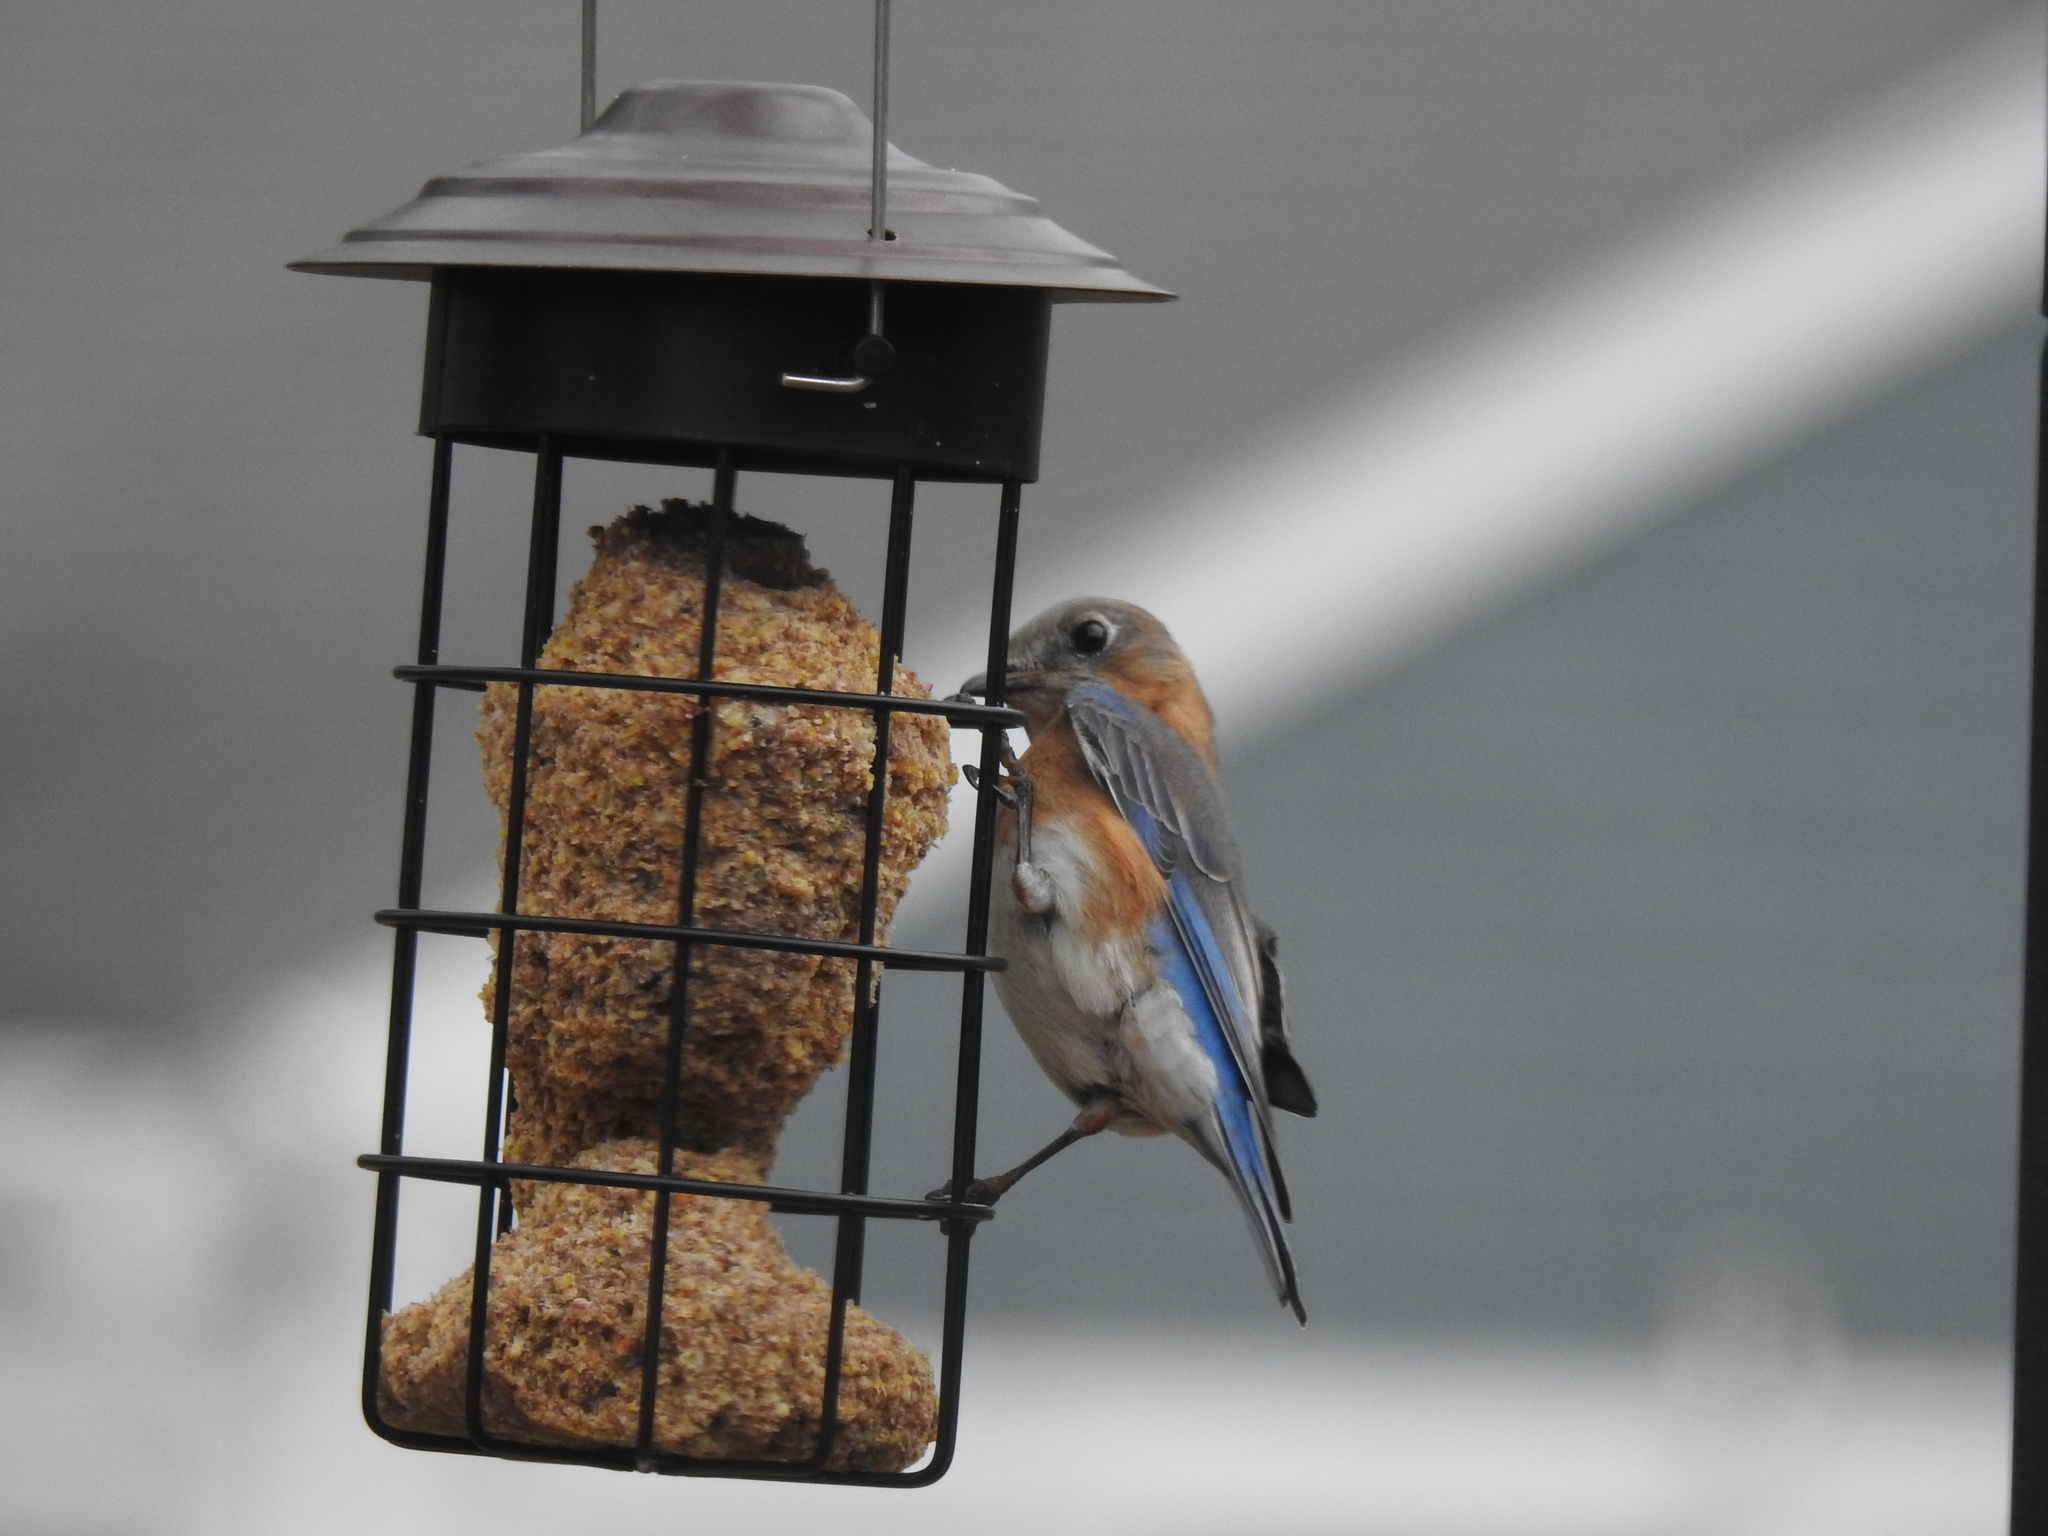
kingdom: Animalia
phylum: Chordata
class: Aves
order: Passeriformes
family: Turdidae
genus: Sialia
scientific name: Sialia sialis
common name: Eastern bluebird
